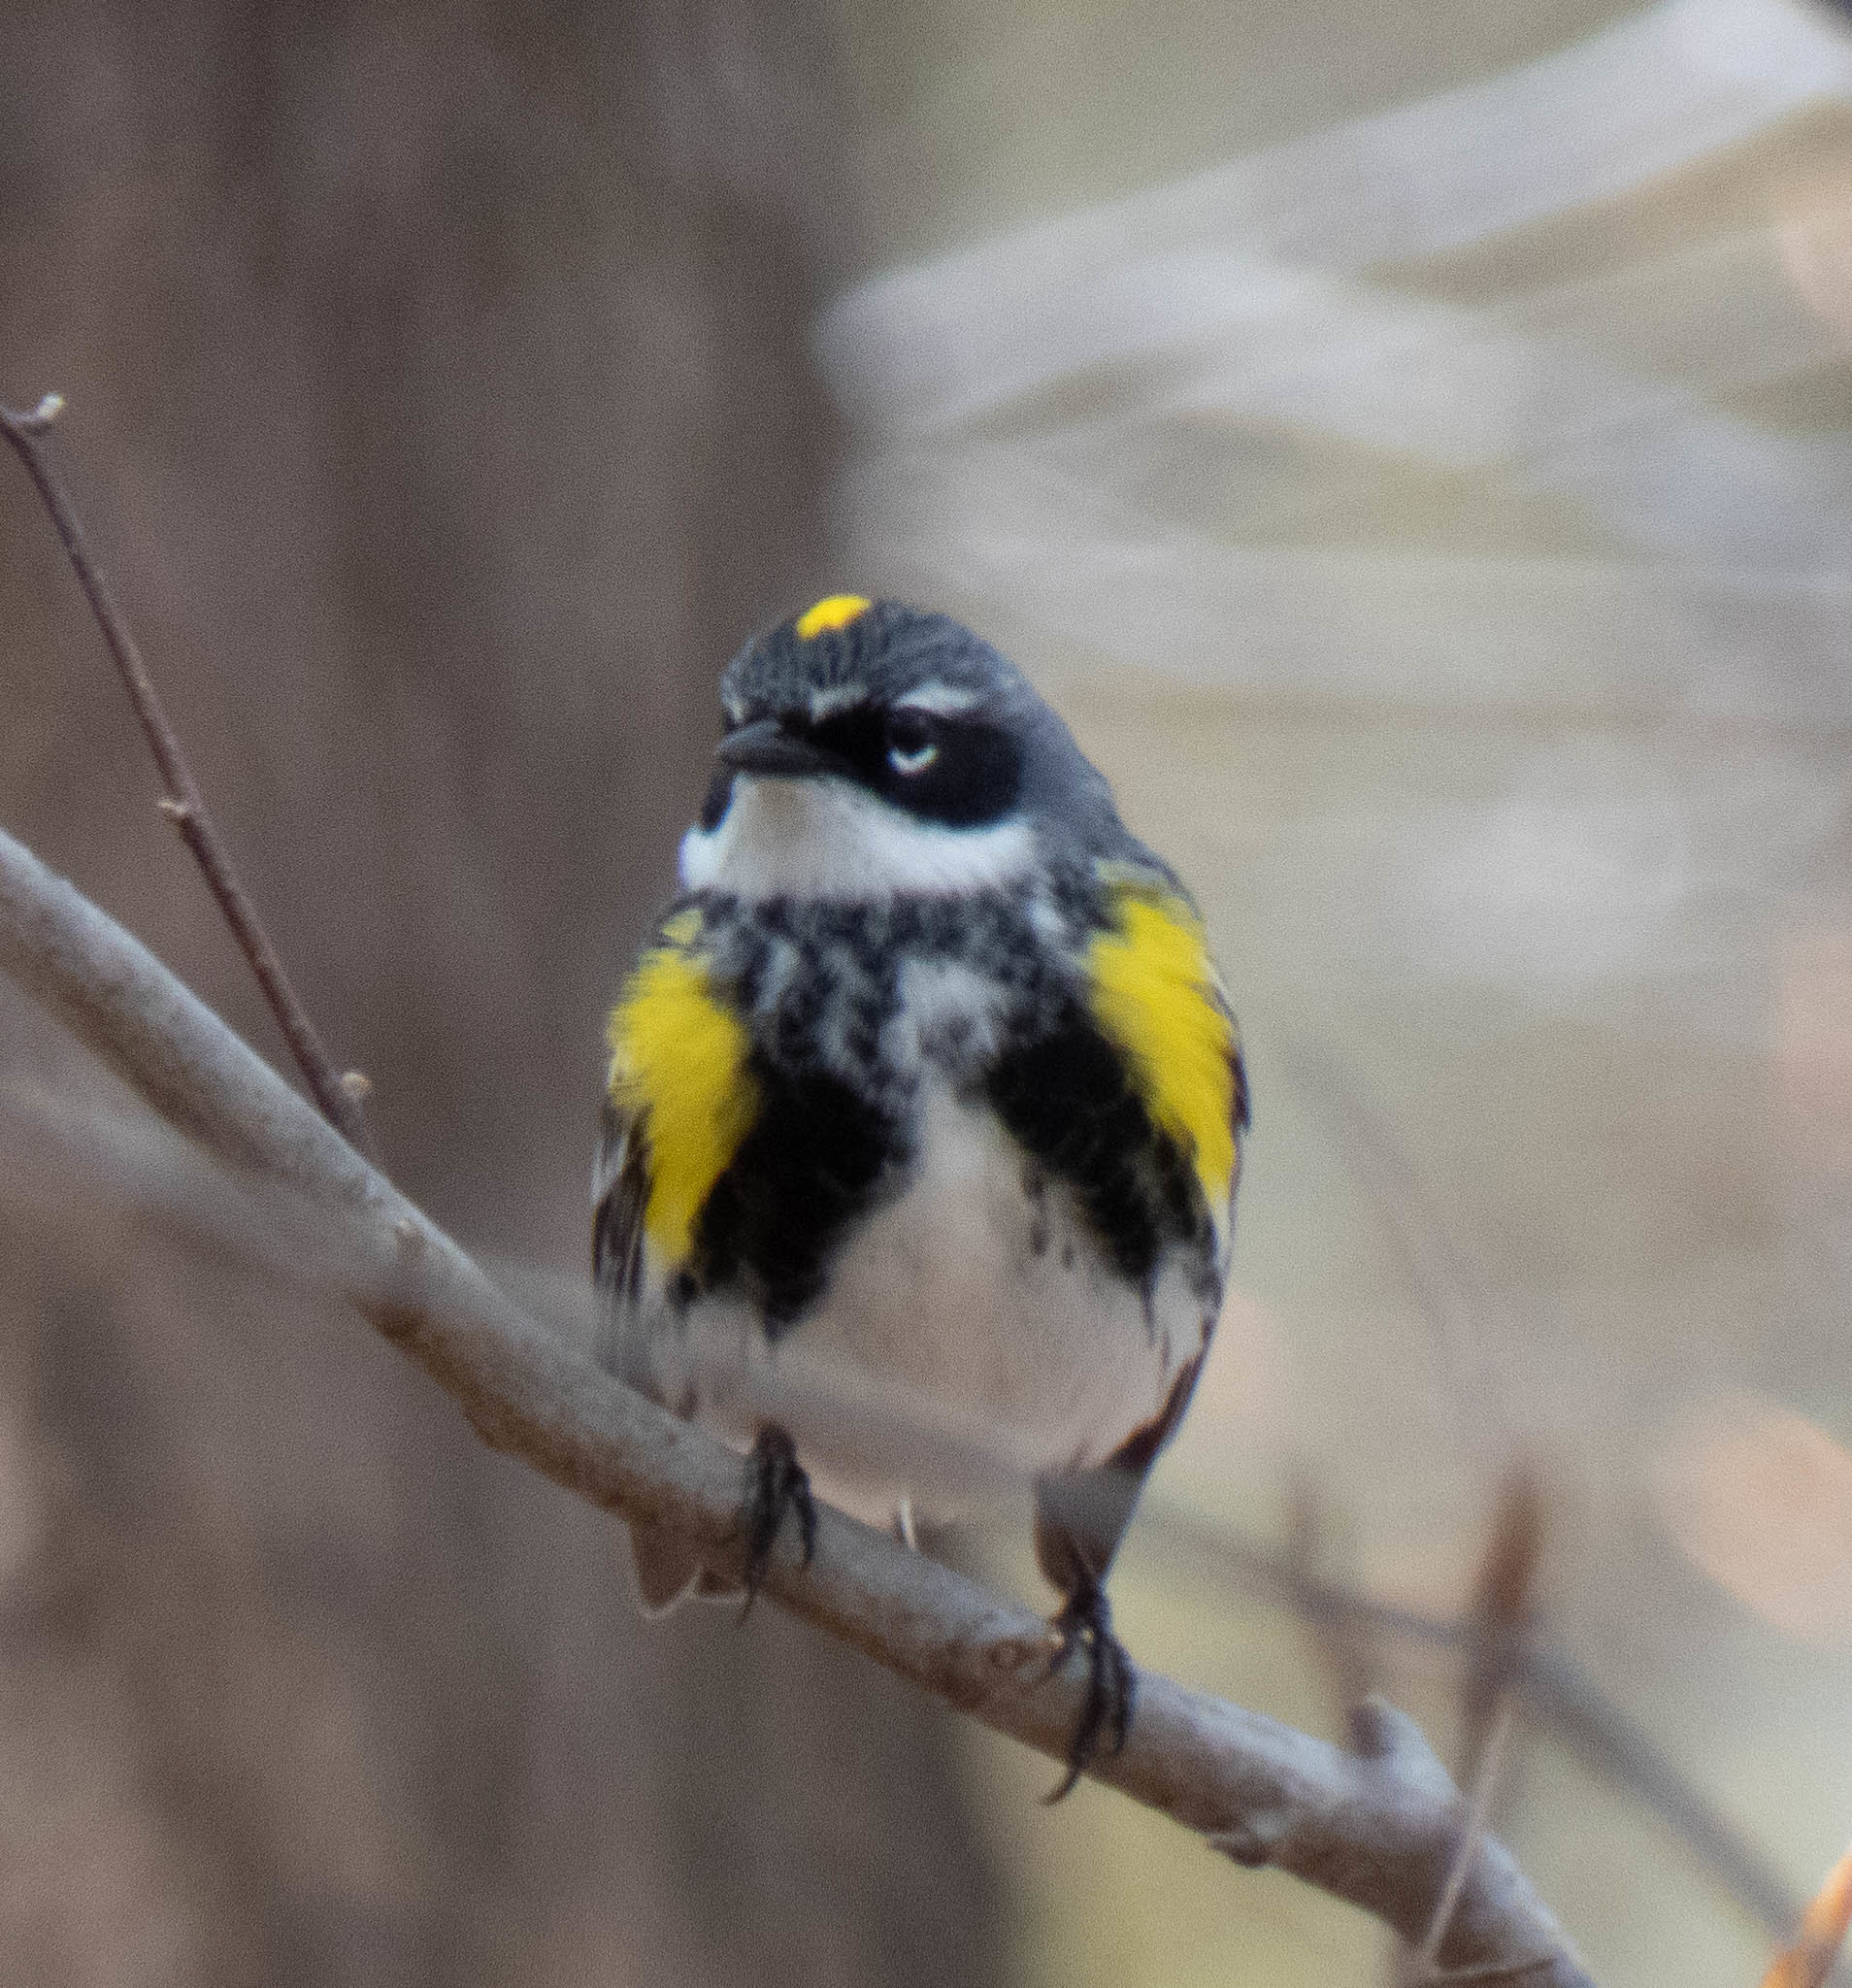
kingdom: Animalia
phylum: Chordata
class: Aves
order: Passeriformes
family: Parulidae
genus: Setophaga
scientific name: Setophaga coronata
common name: Myrtle warbler
